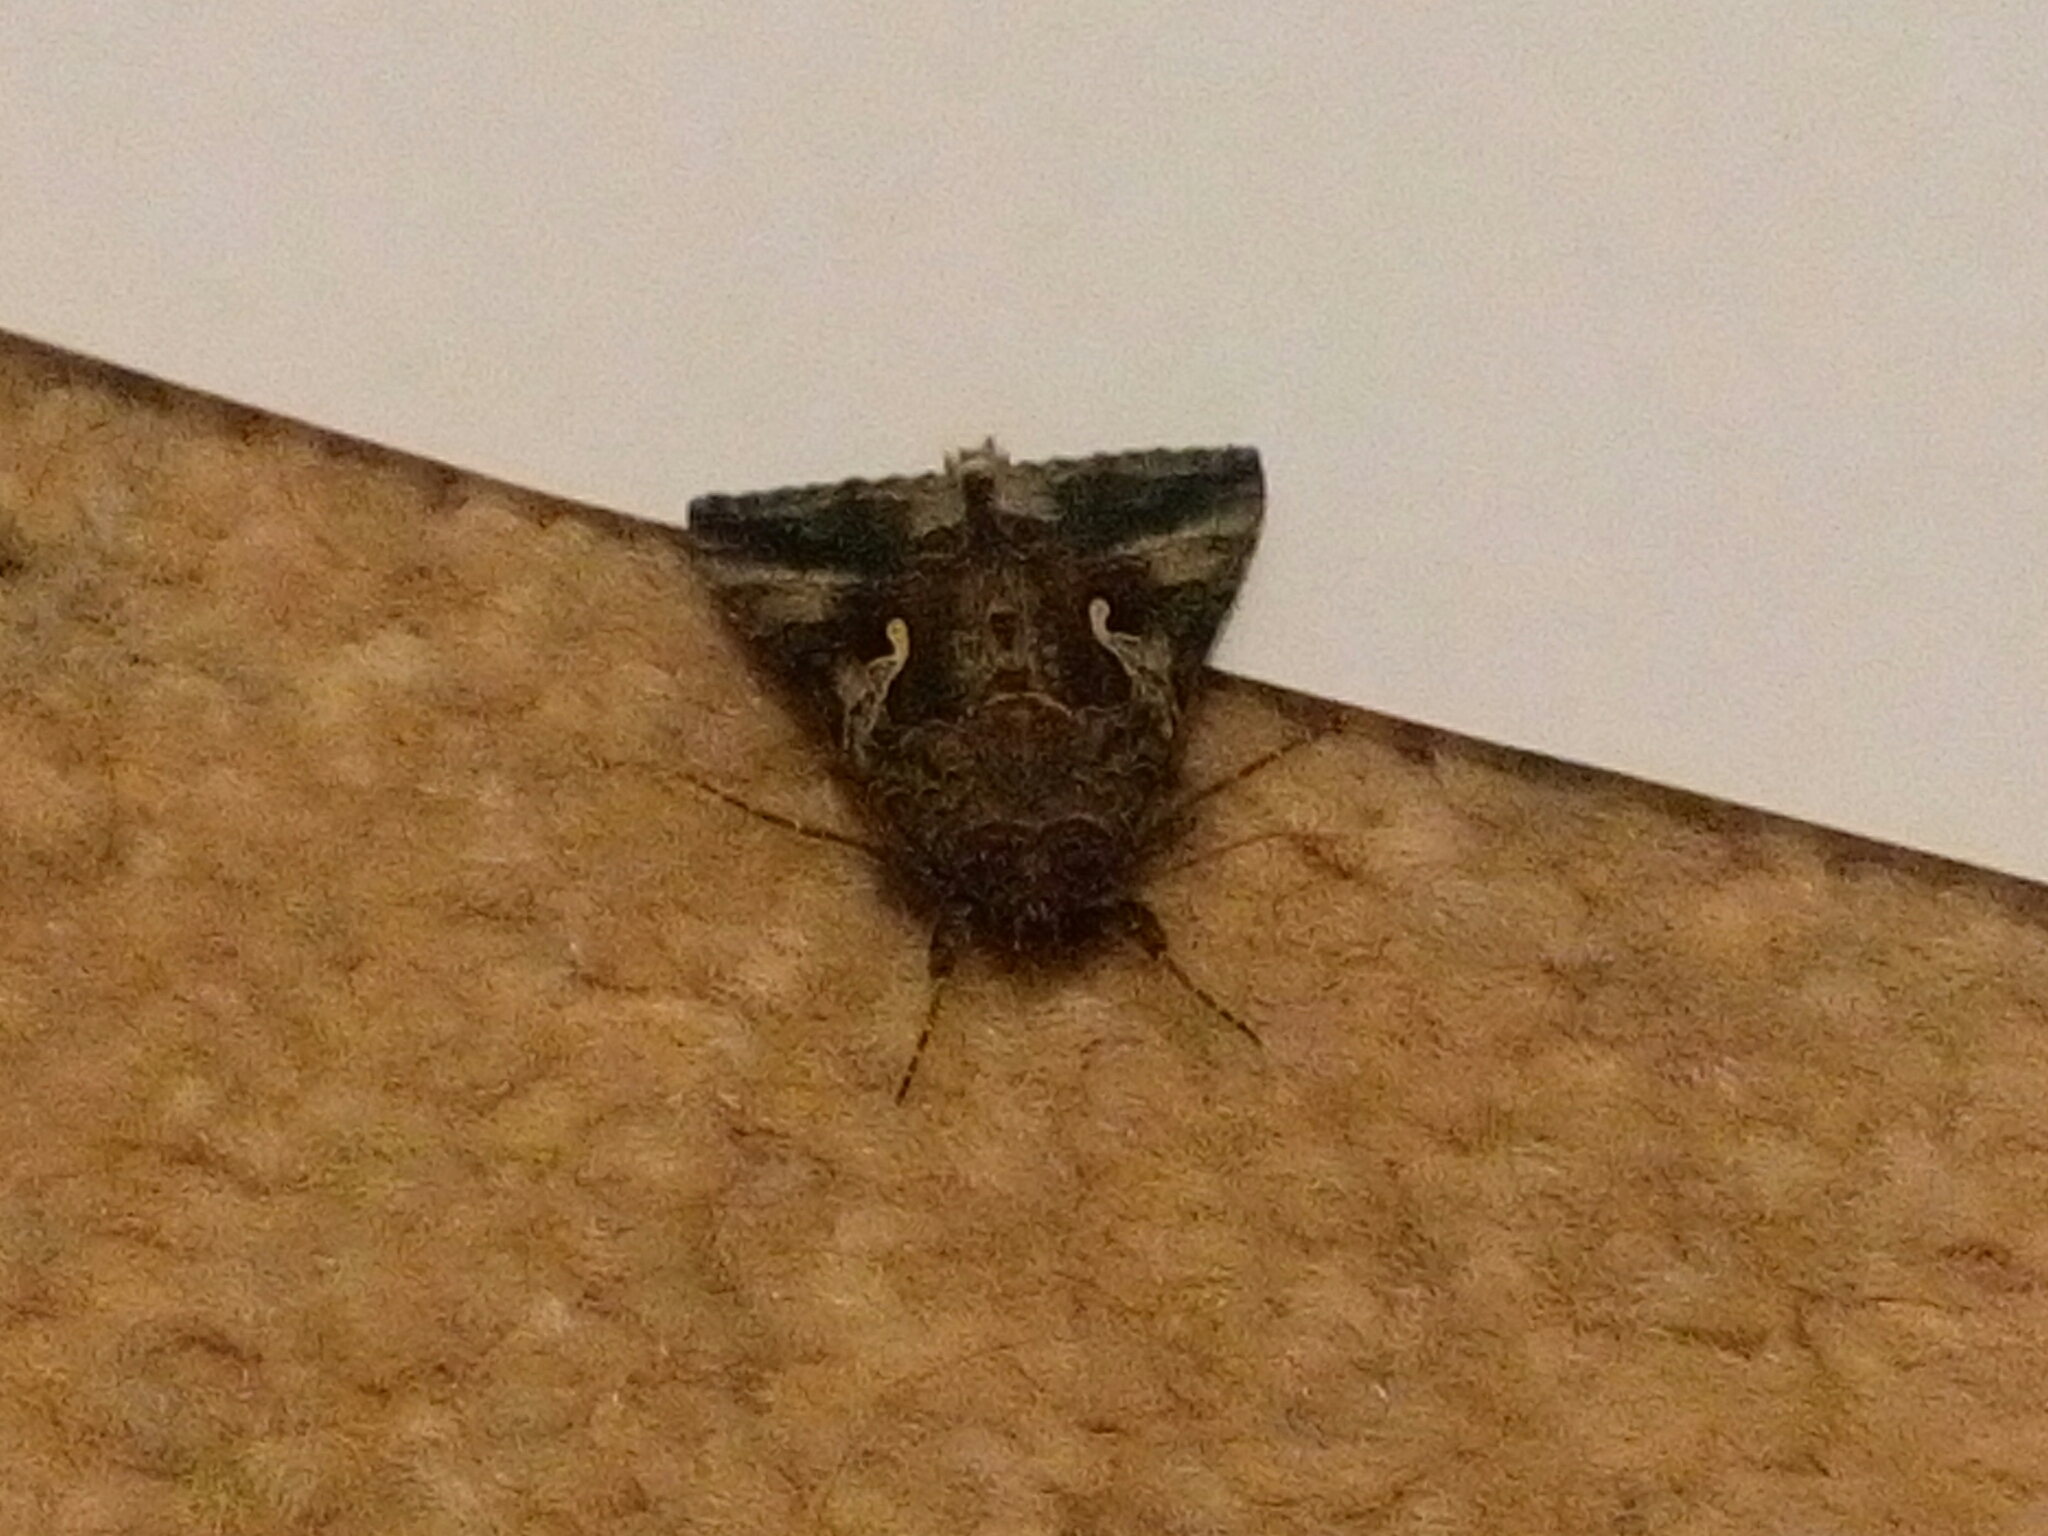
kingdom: Animalia
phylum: Arthropoda
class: Insecta
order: Lepidoptera
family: Noctuidae
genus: Autographa
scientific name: Autographa gamma
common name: Silver y
